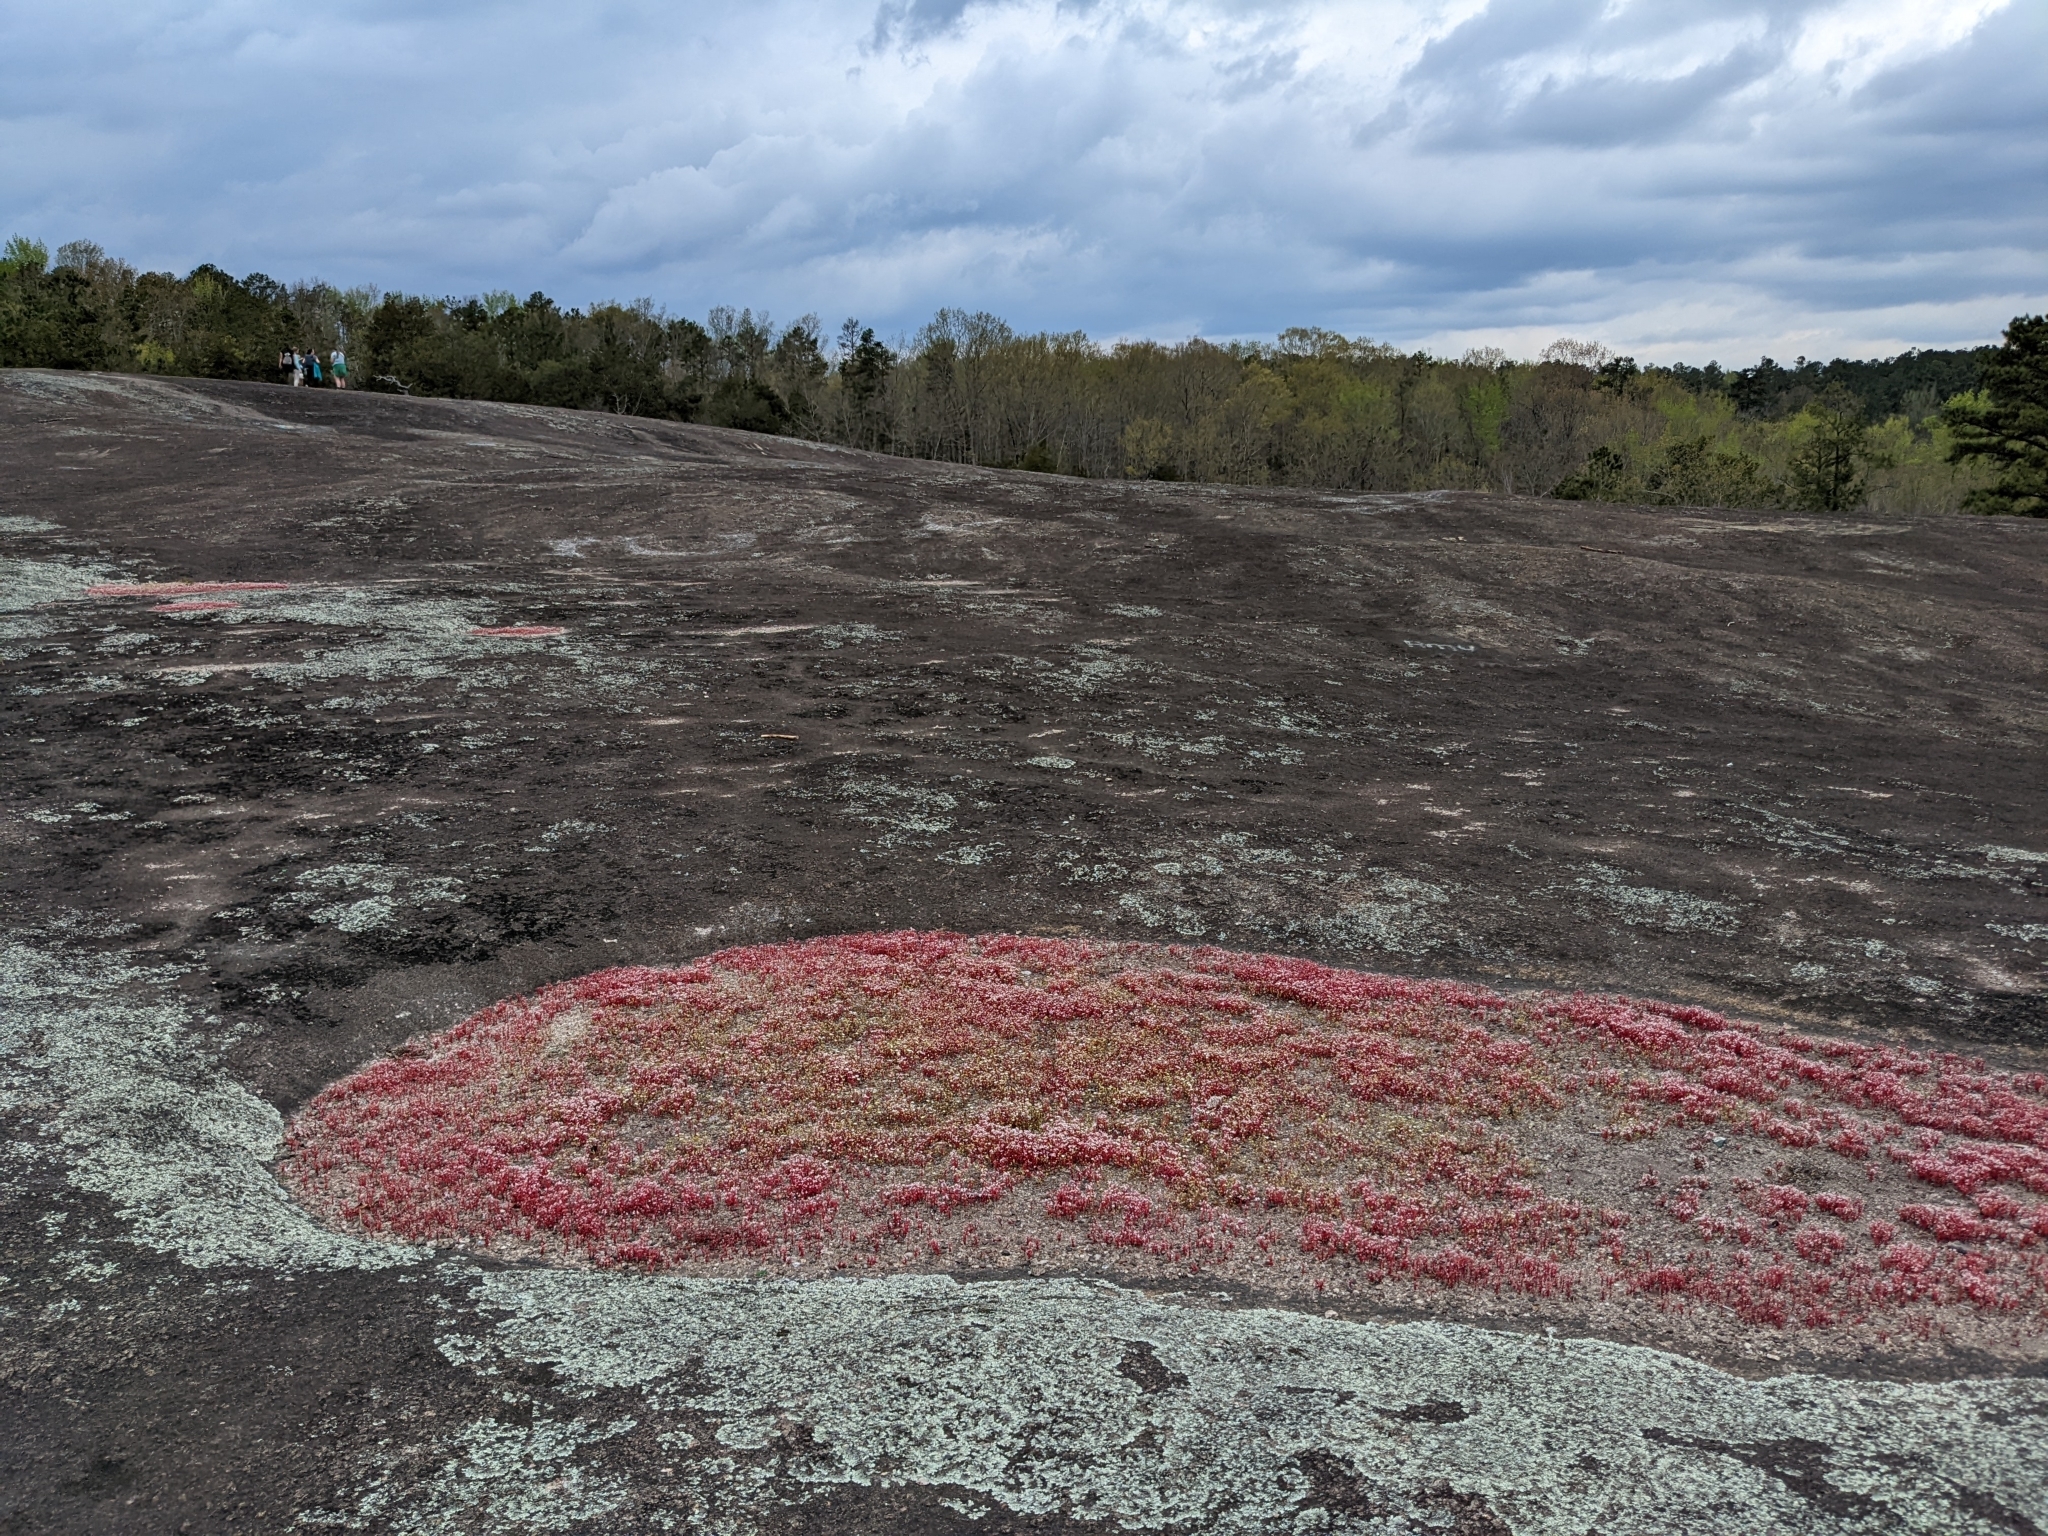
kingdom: Plantae
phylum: Tracheophyta
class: Magnoliopsida
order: Saxifragales
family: Crassulaceae
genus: Sedum
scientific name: Sedum smallii
